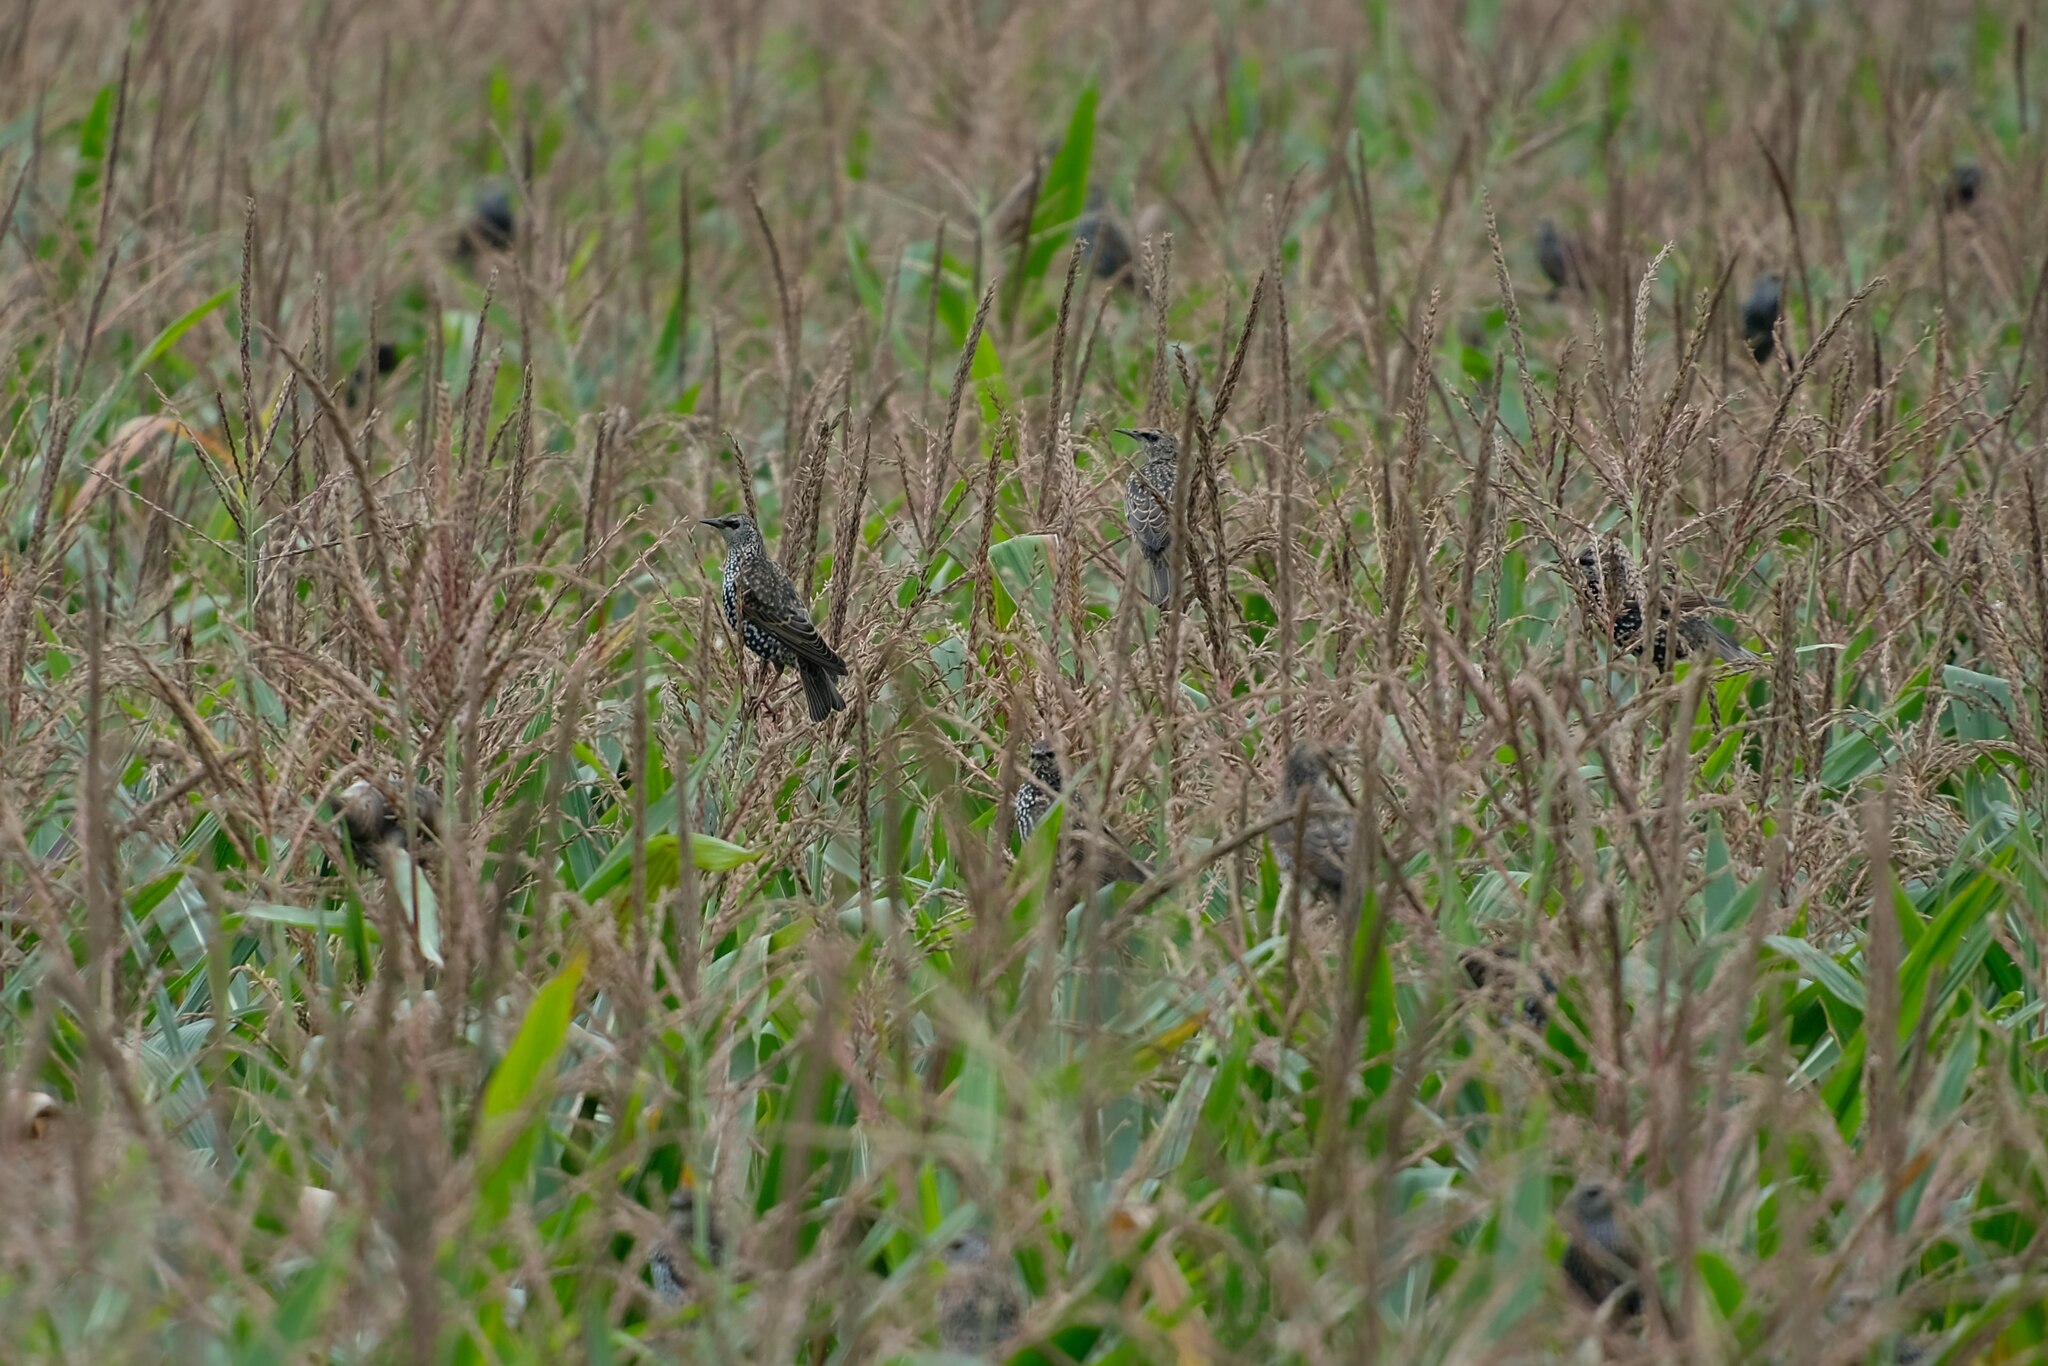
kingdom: Animalia
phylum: Chordata
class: Aves
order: Passeriformes
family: Sturnidae
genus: Sturnus
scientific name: Sturnus vulgaris
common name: Common starling
